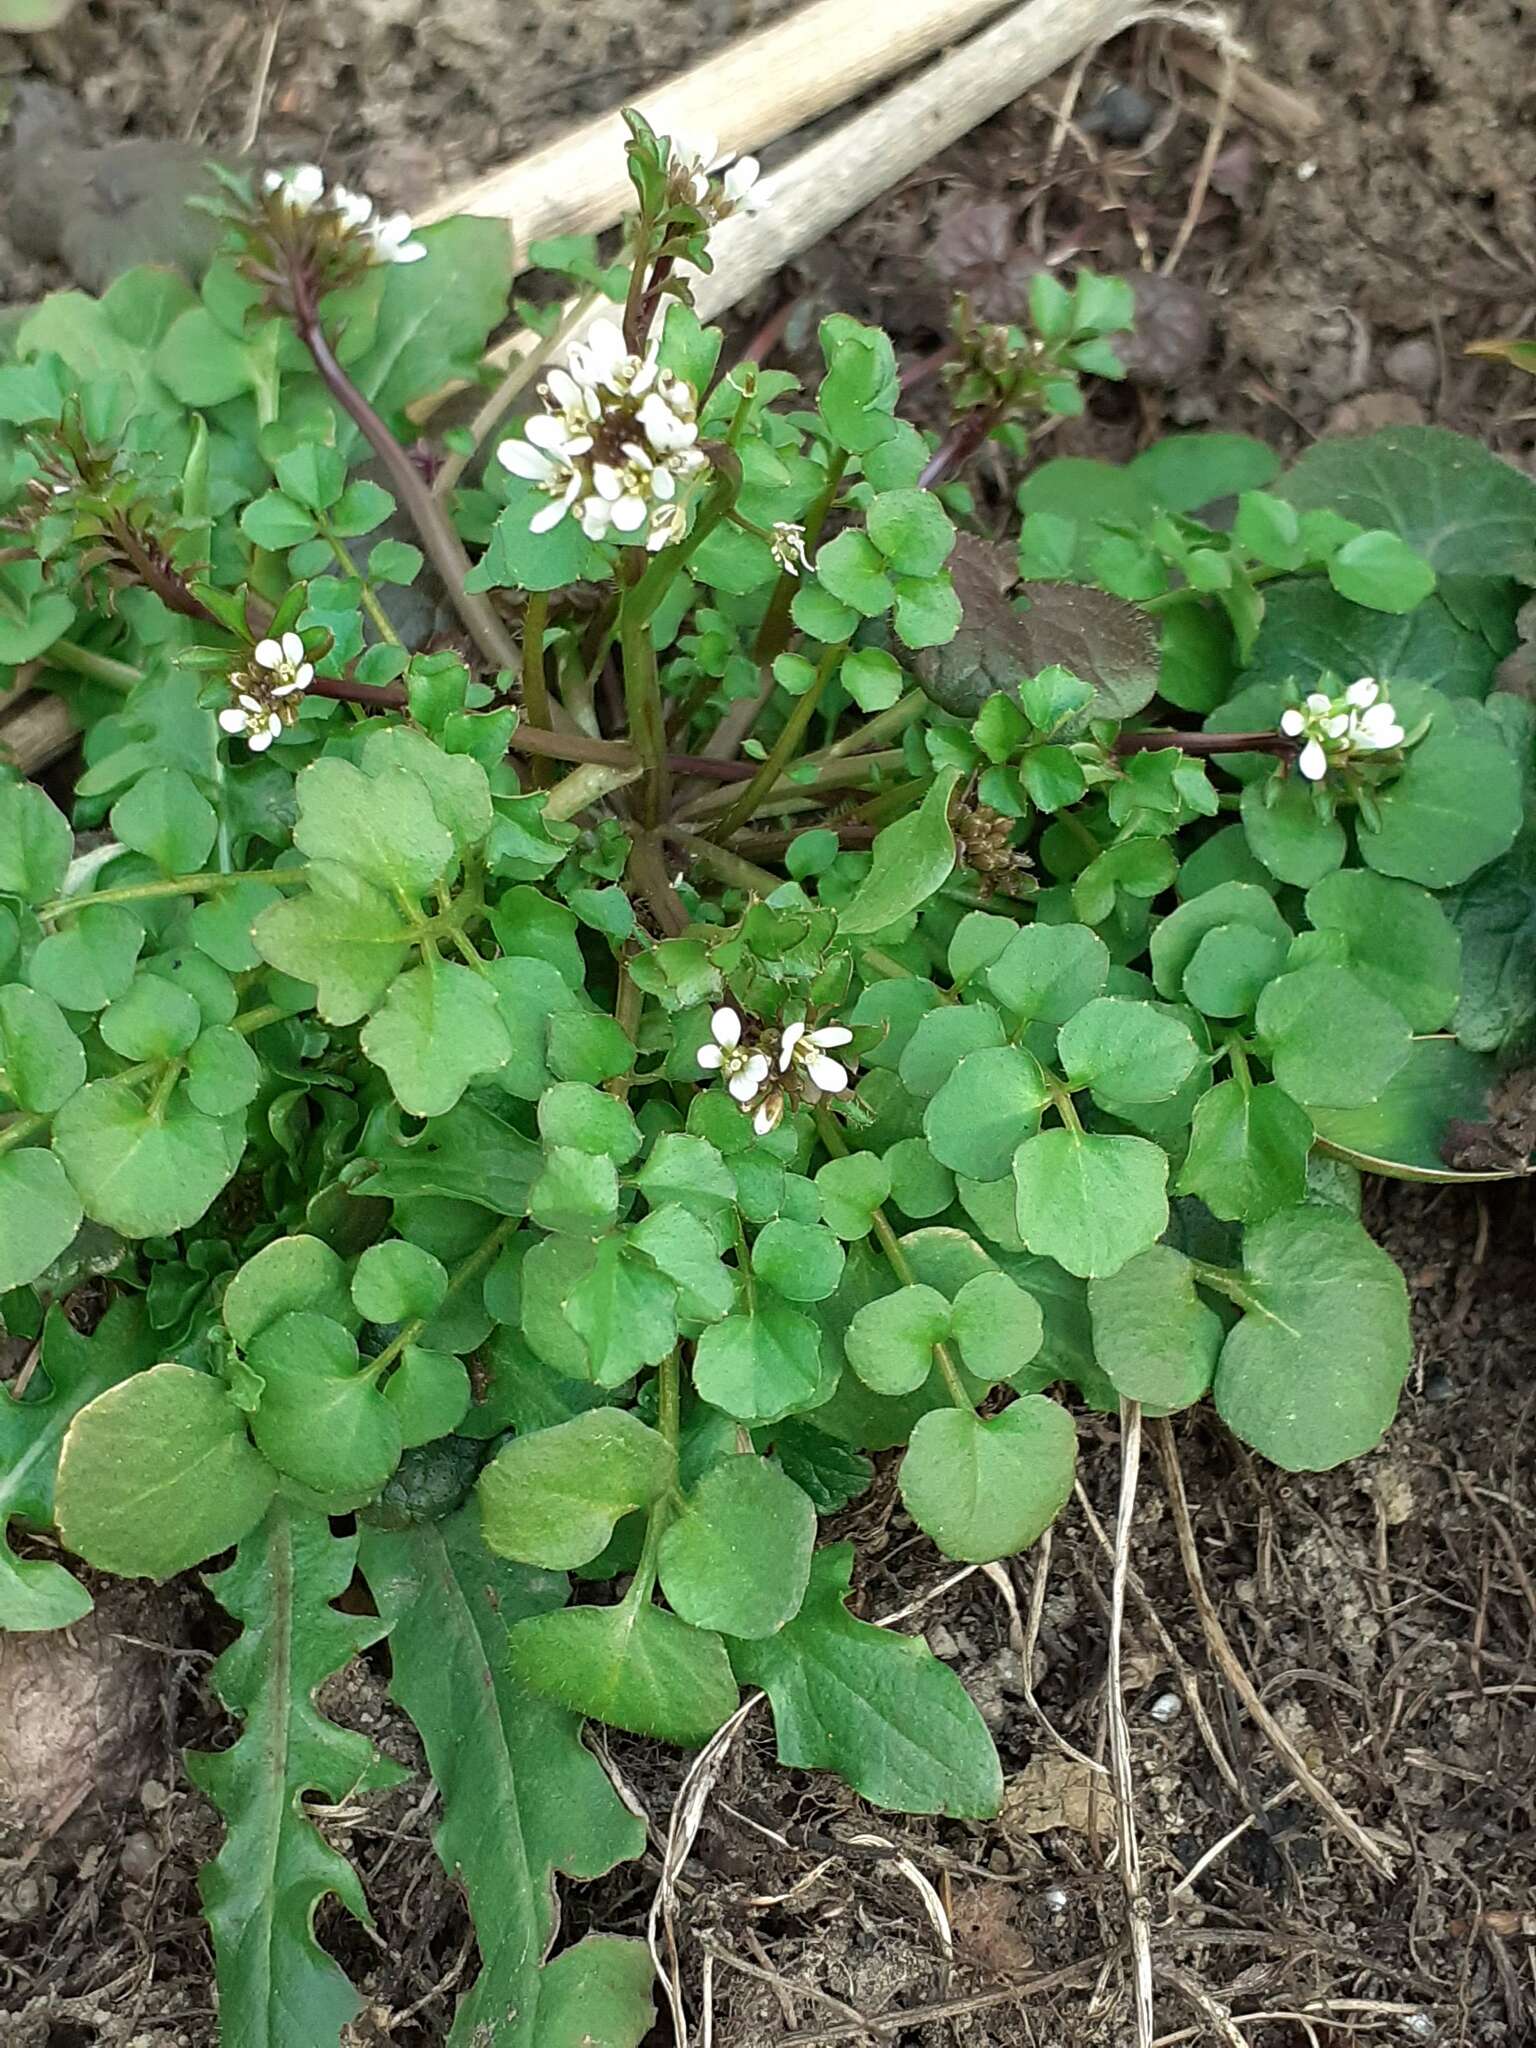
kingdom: Plantae
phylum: Tracheophyta
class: Magnoliopsida
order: Brassicales
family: Brassicaceae
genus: Cardamine
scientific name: Cardamine hirsuta
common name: Hairy bittercress
